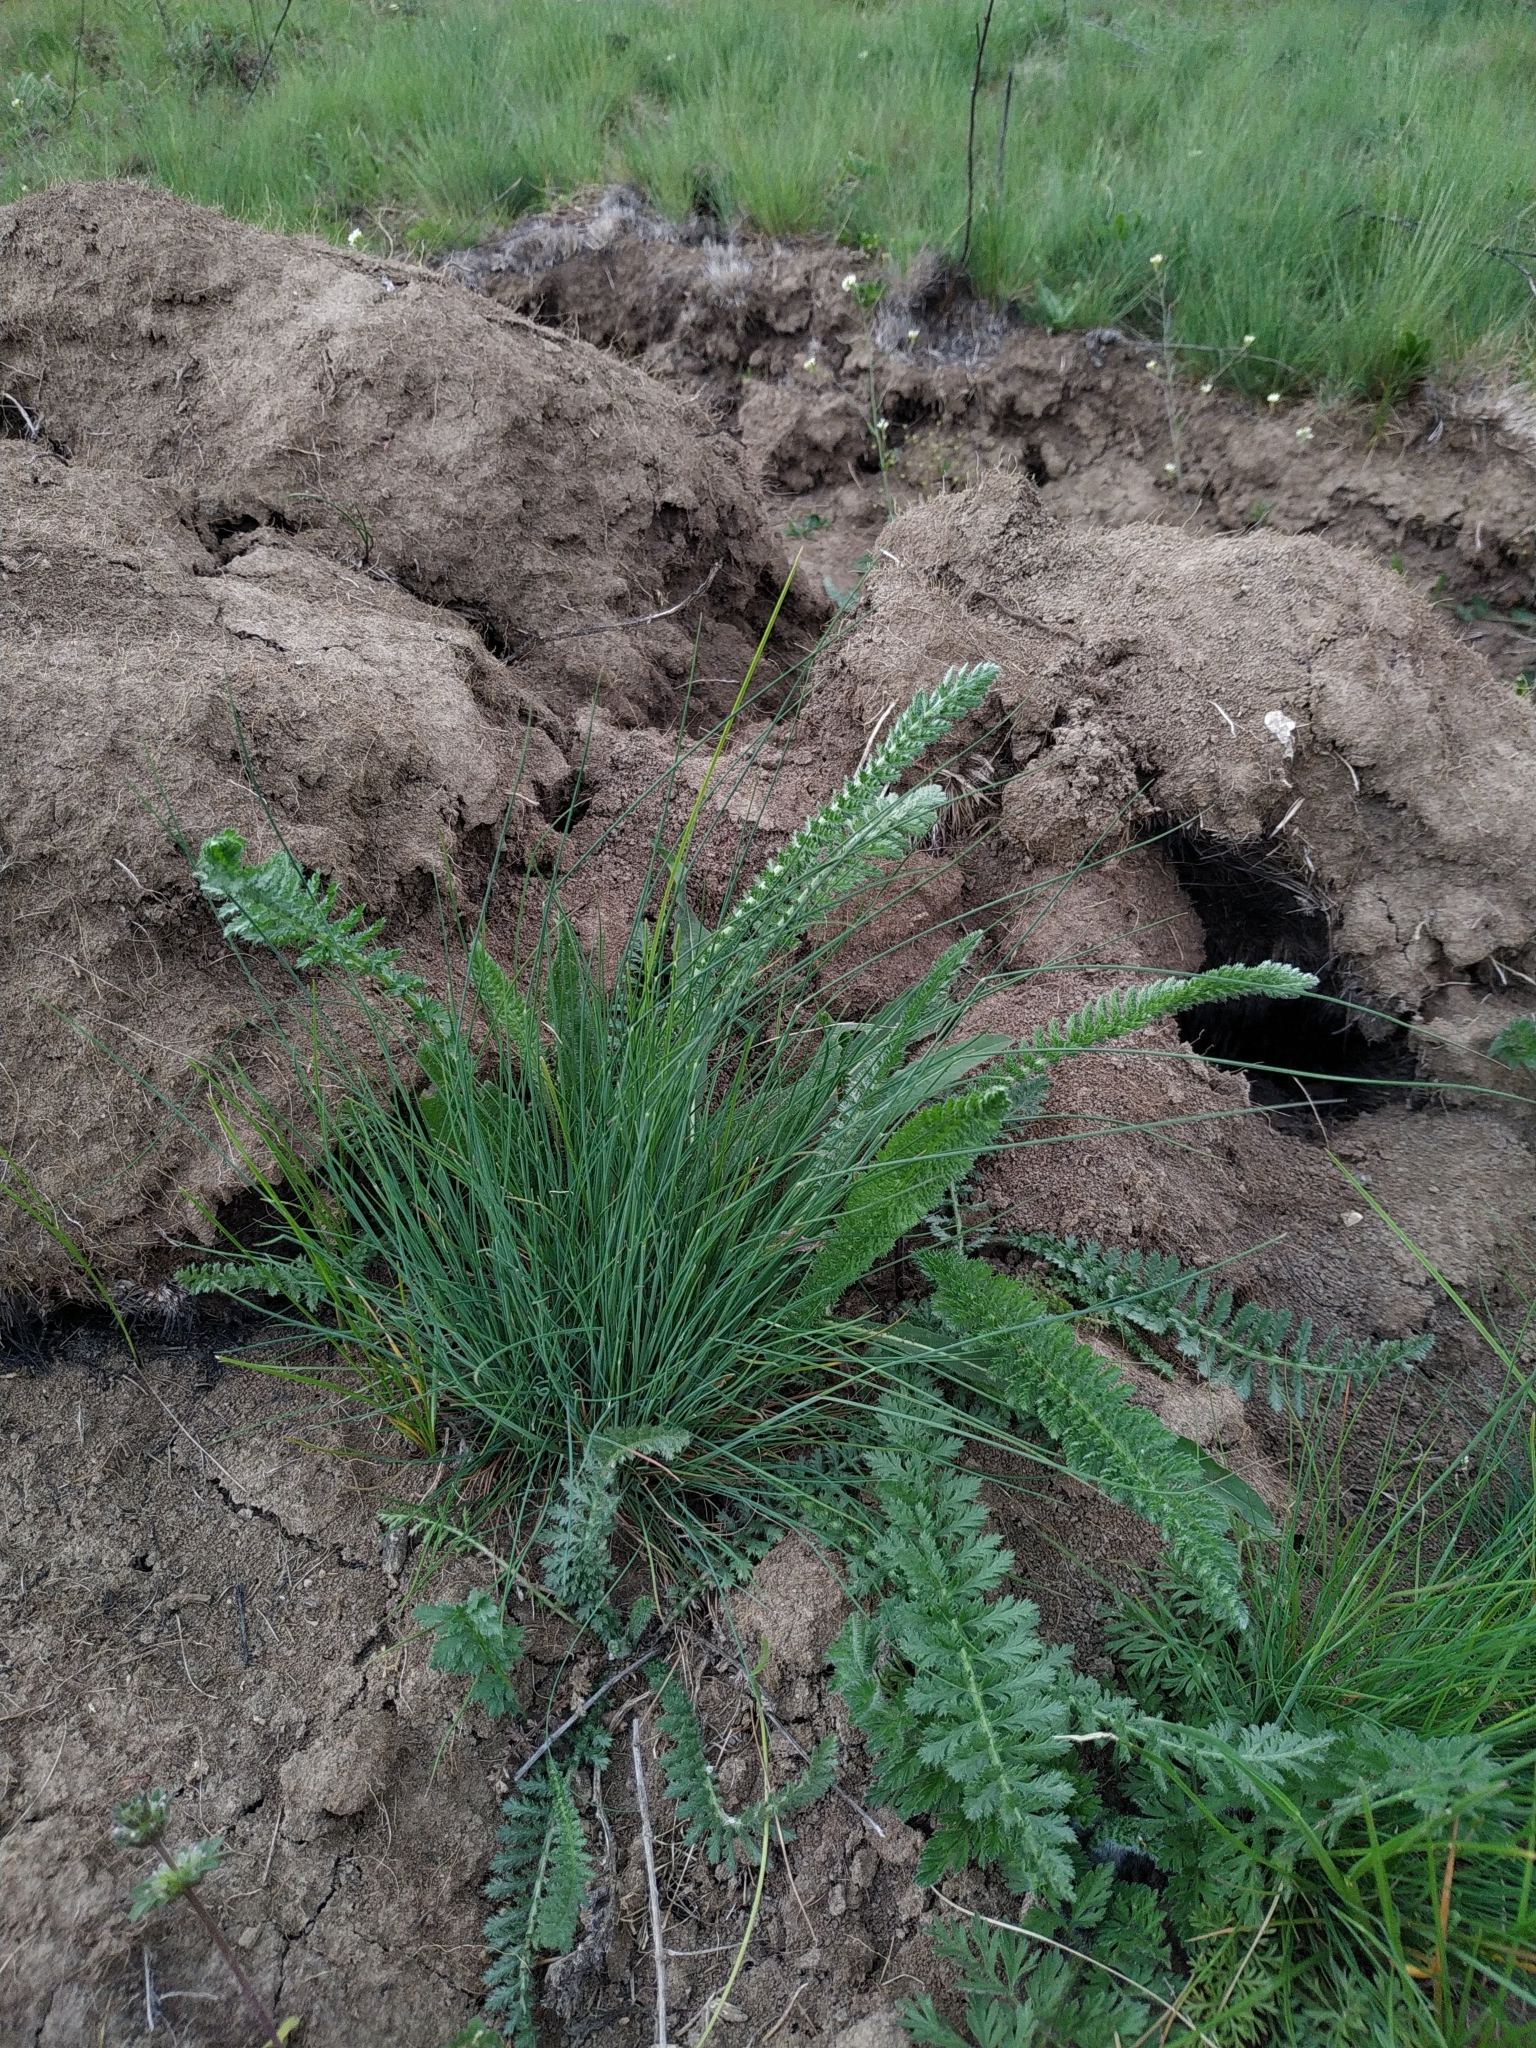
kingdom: Plantae
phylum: Tracheophyta
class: Magnoliopsida
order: Asterales
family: Asteraceae
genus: Achillea
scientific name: Achillea setacea
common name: Bristly yarrow
